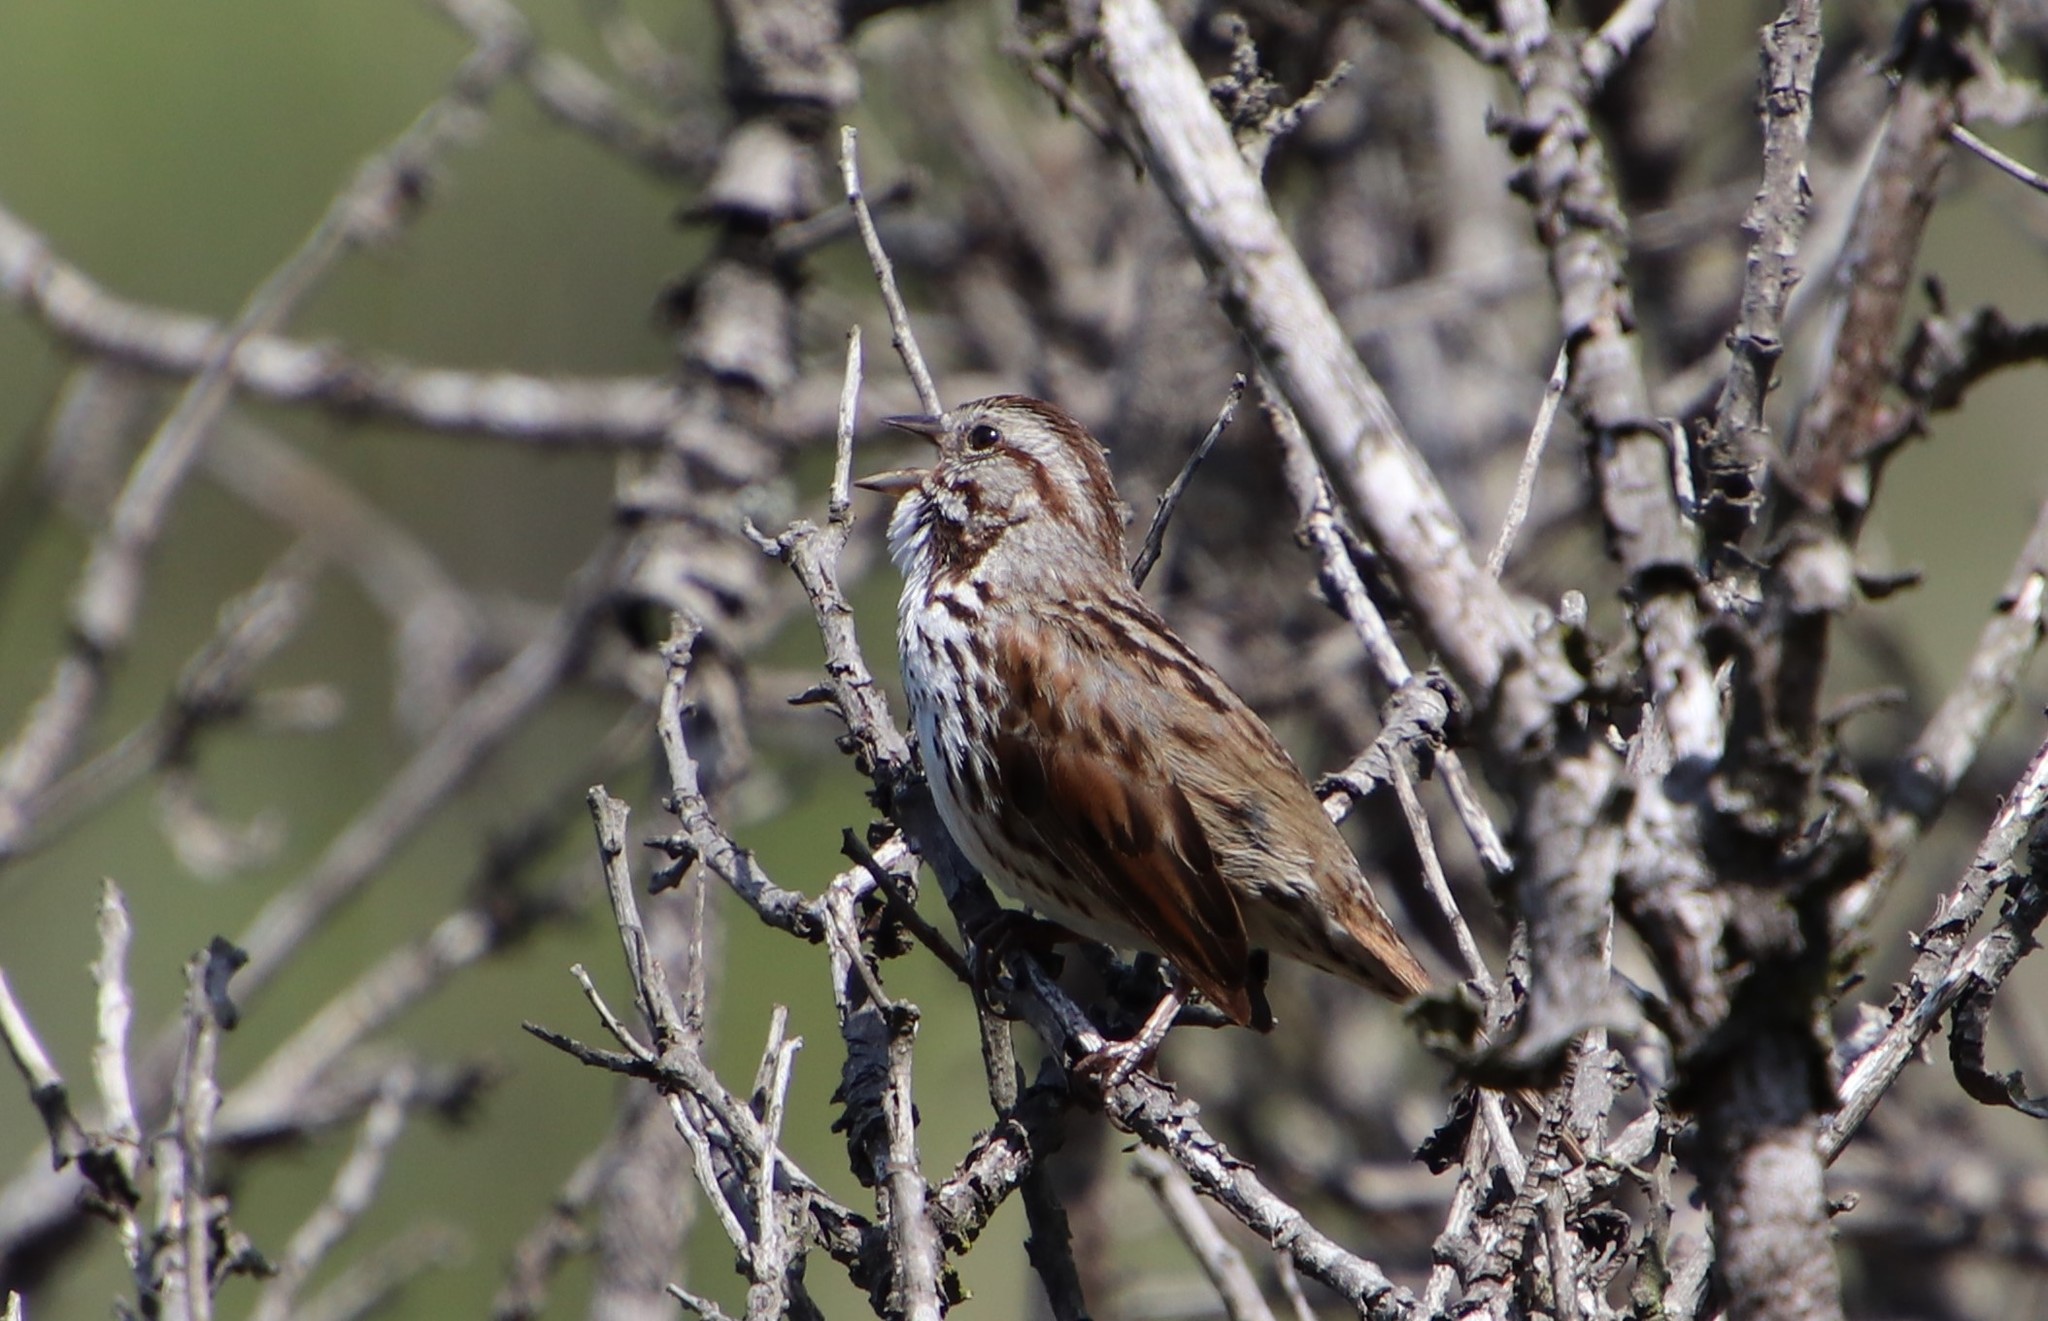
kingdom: Animalia
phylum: Chordata
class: Aves
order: Passeriformes
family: Passerellidae
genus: Melospiza
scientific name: Melospiza melodia
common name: Song sparrow
